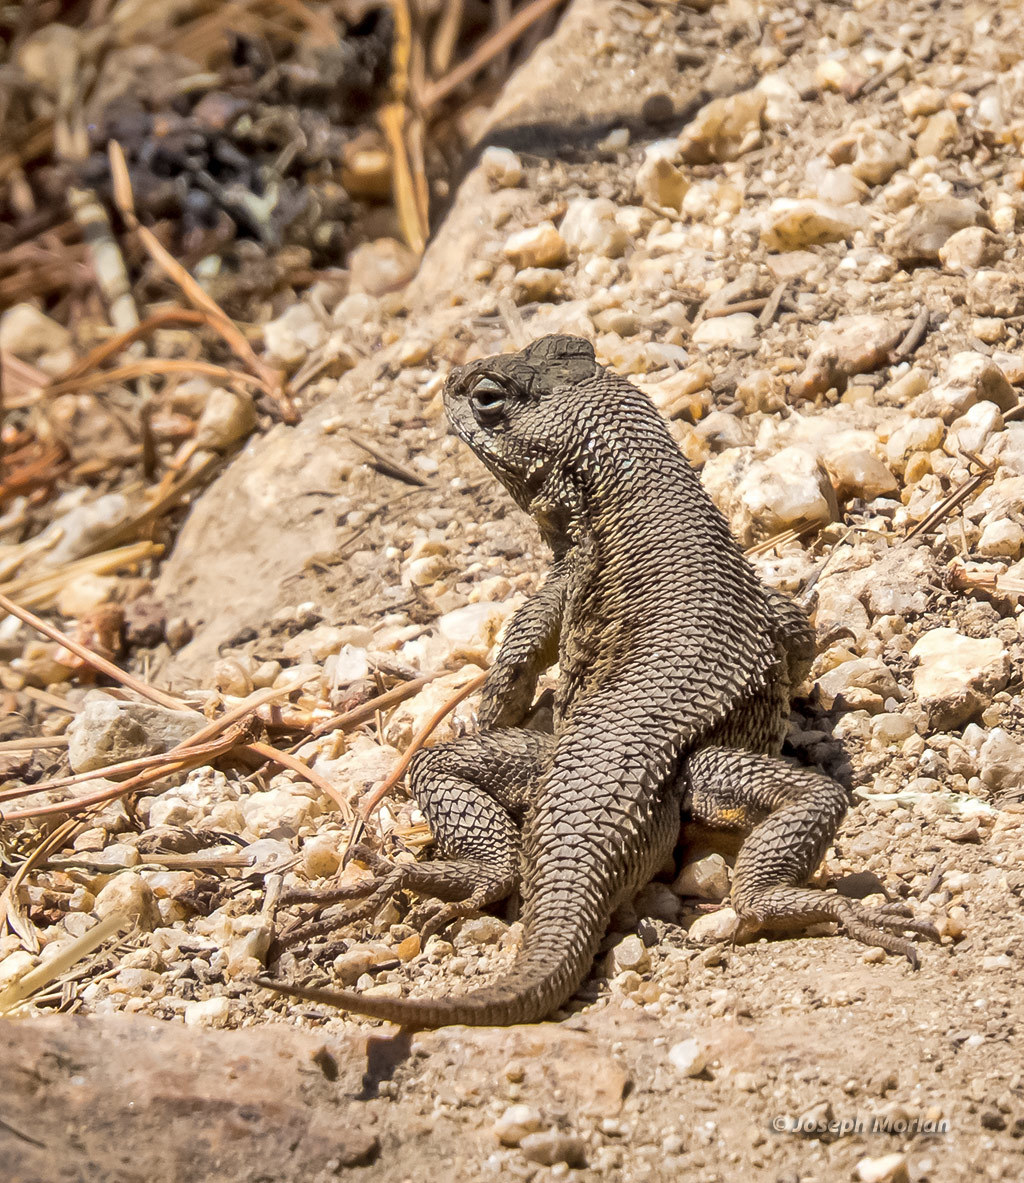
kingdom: Animalia
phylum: Chordata
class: Squamata
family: Phrynosomatidae
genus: Sceloporus
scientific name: Sceloporus occidentalis
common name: Western fence lizard
